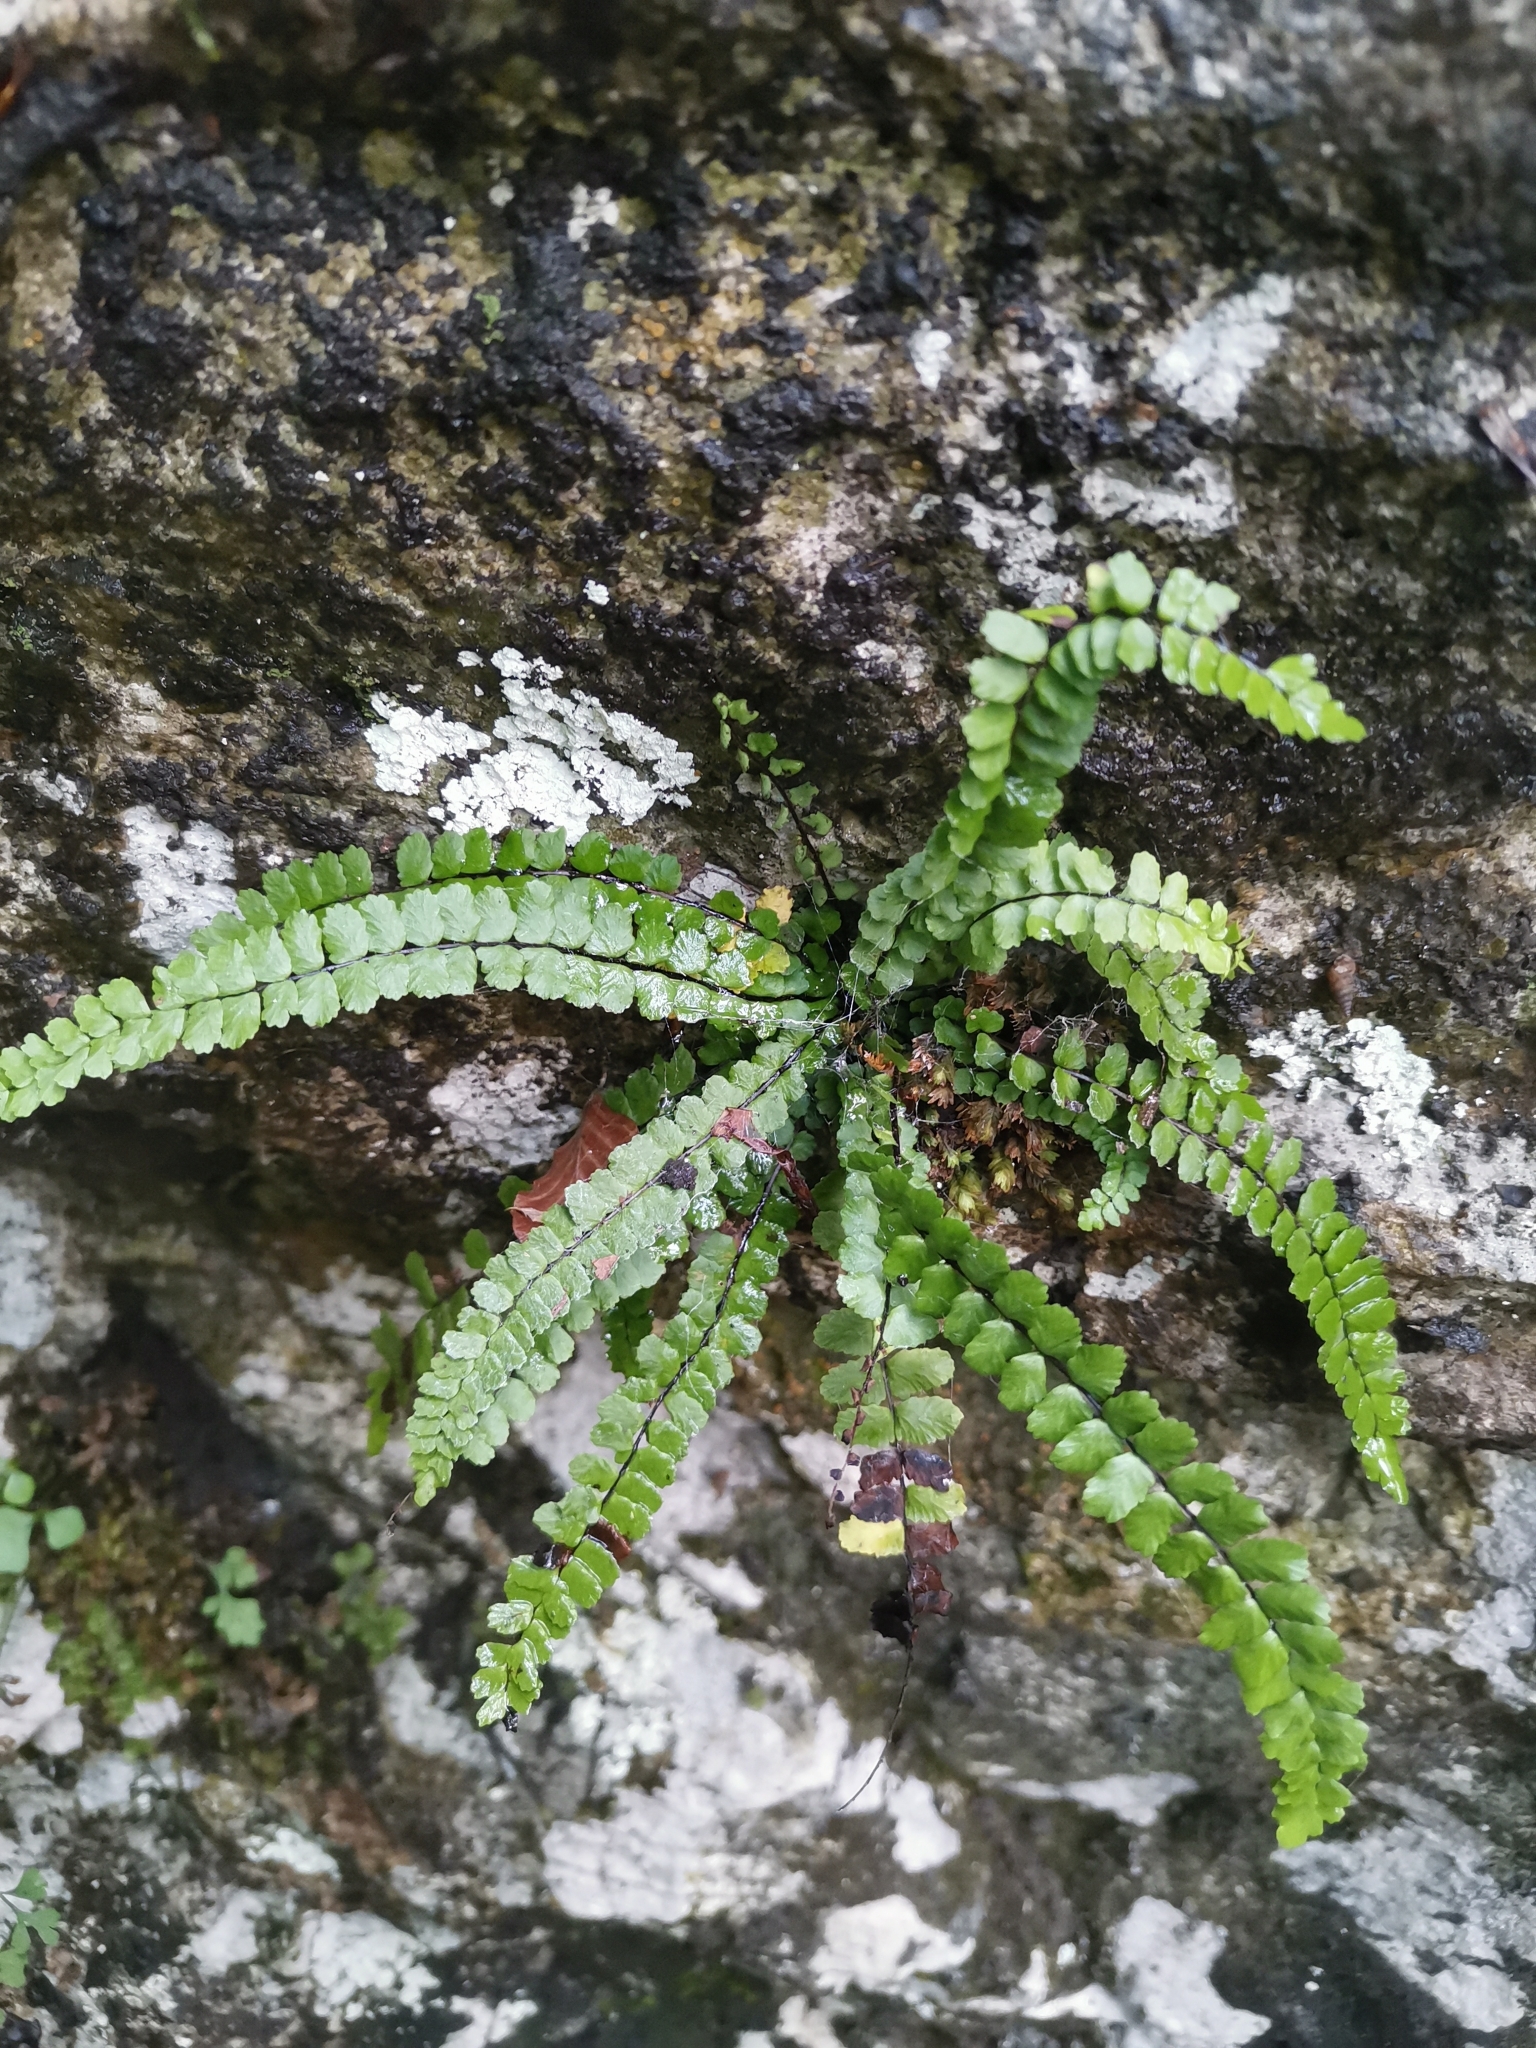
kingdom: Plantae
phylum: Tracheophyta
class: Polypodiopsida
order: Polypodiales
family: Aspleniaceae
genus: Asplenium
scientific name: Asplenium trichomanes
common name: Maidenhair spleenwort
